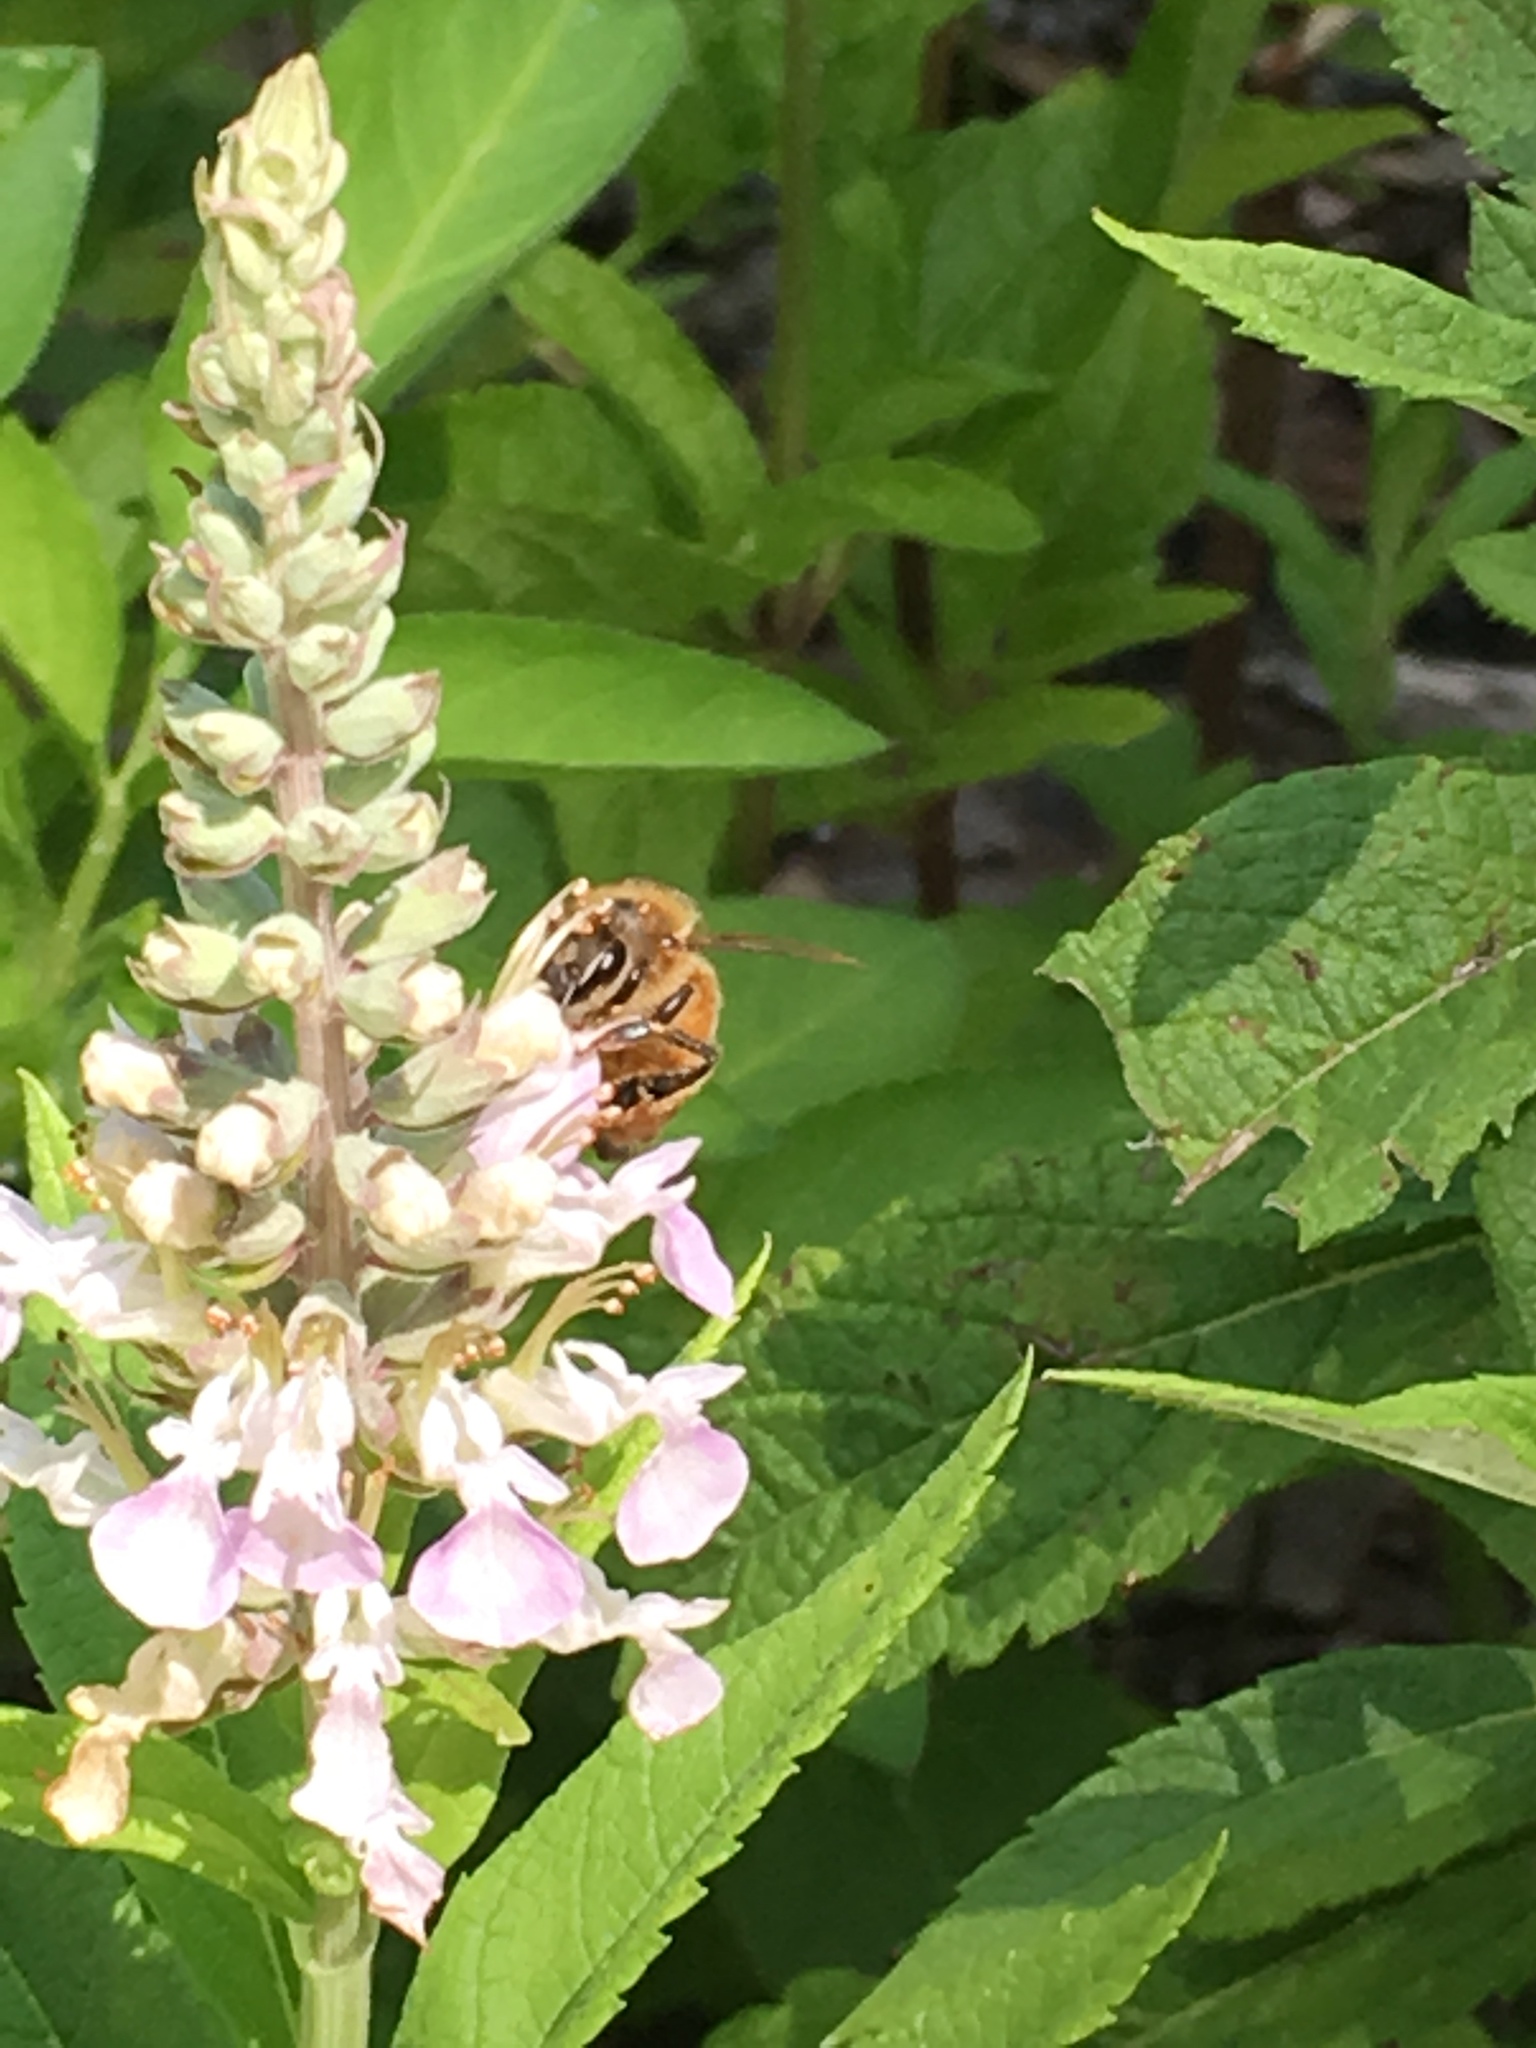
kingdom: Animalia
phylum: Arthropoda
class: Insecta
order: Hymenoptera
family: Apidae
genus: Apis
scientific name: Apis mellifera
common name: Honey bee
